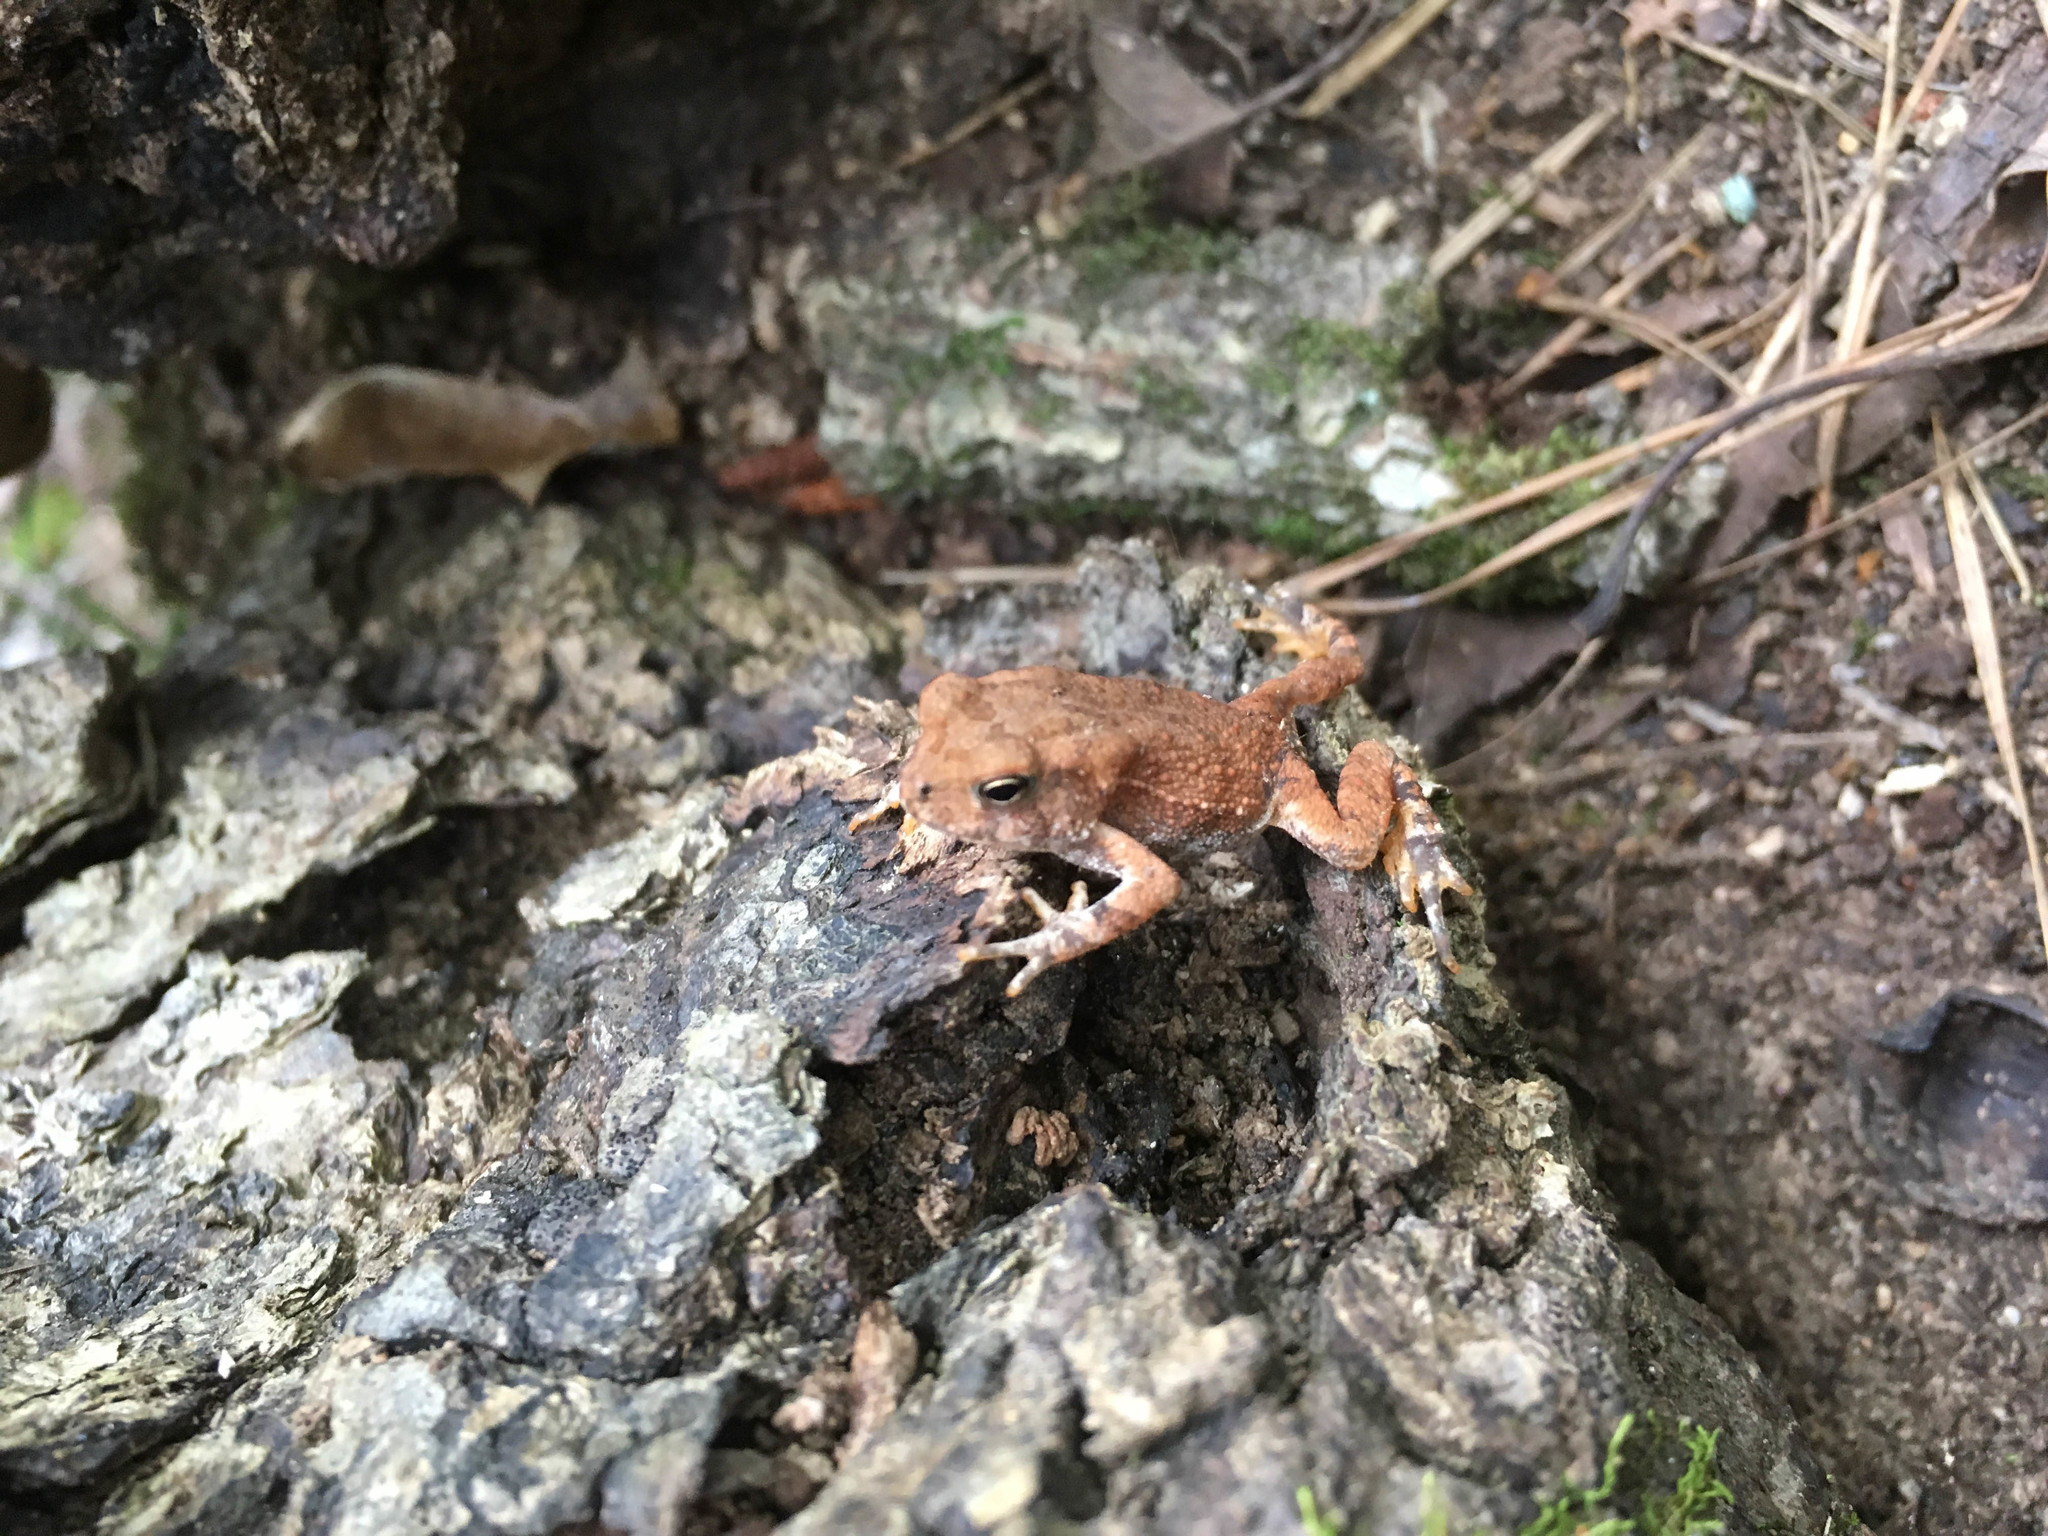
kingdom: Animalia
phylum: Chordata
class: Amphibia
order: Anura
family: Bufonidae
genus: Anaxyrus
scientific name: Anaxyrus americanus
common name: American toad
